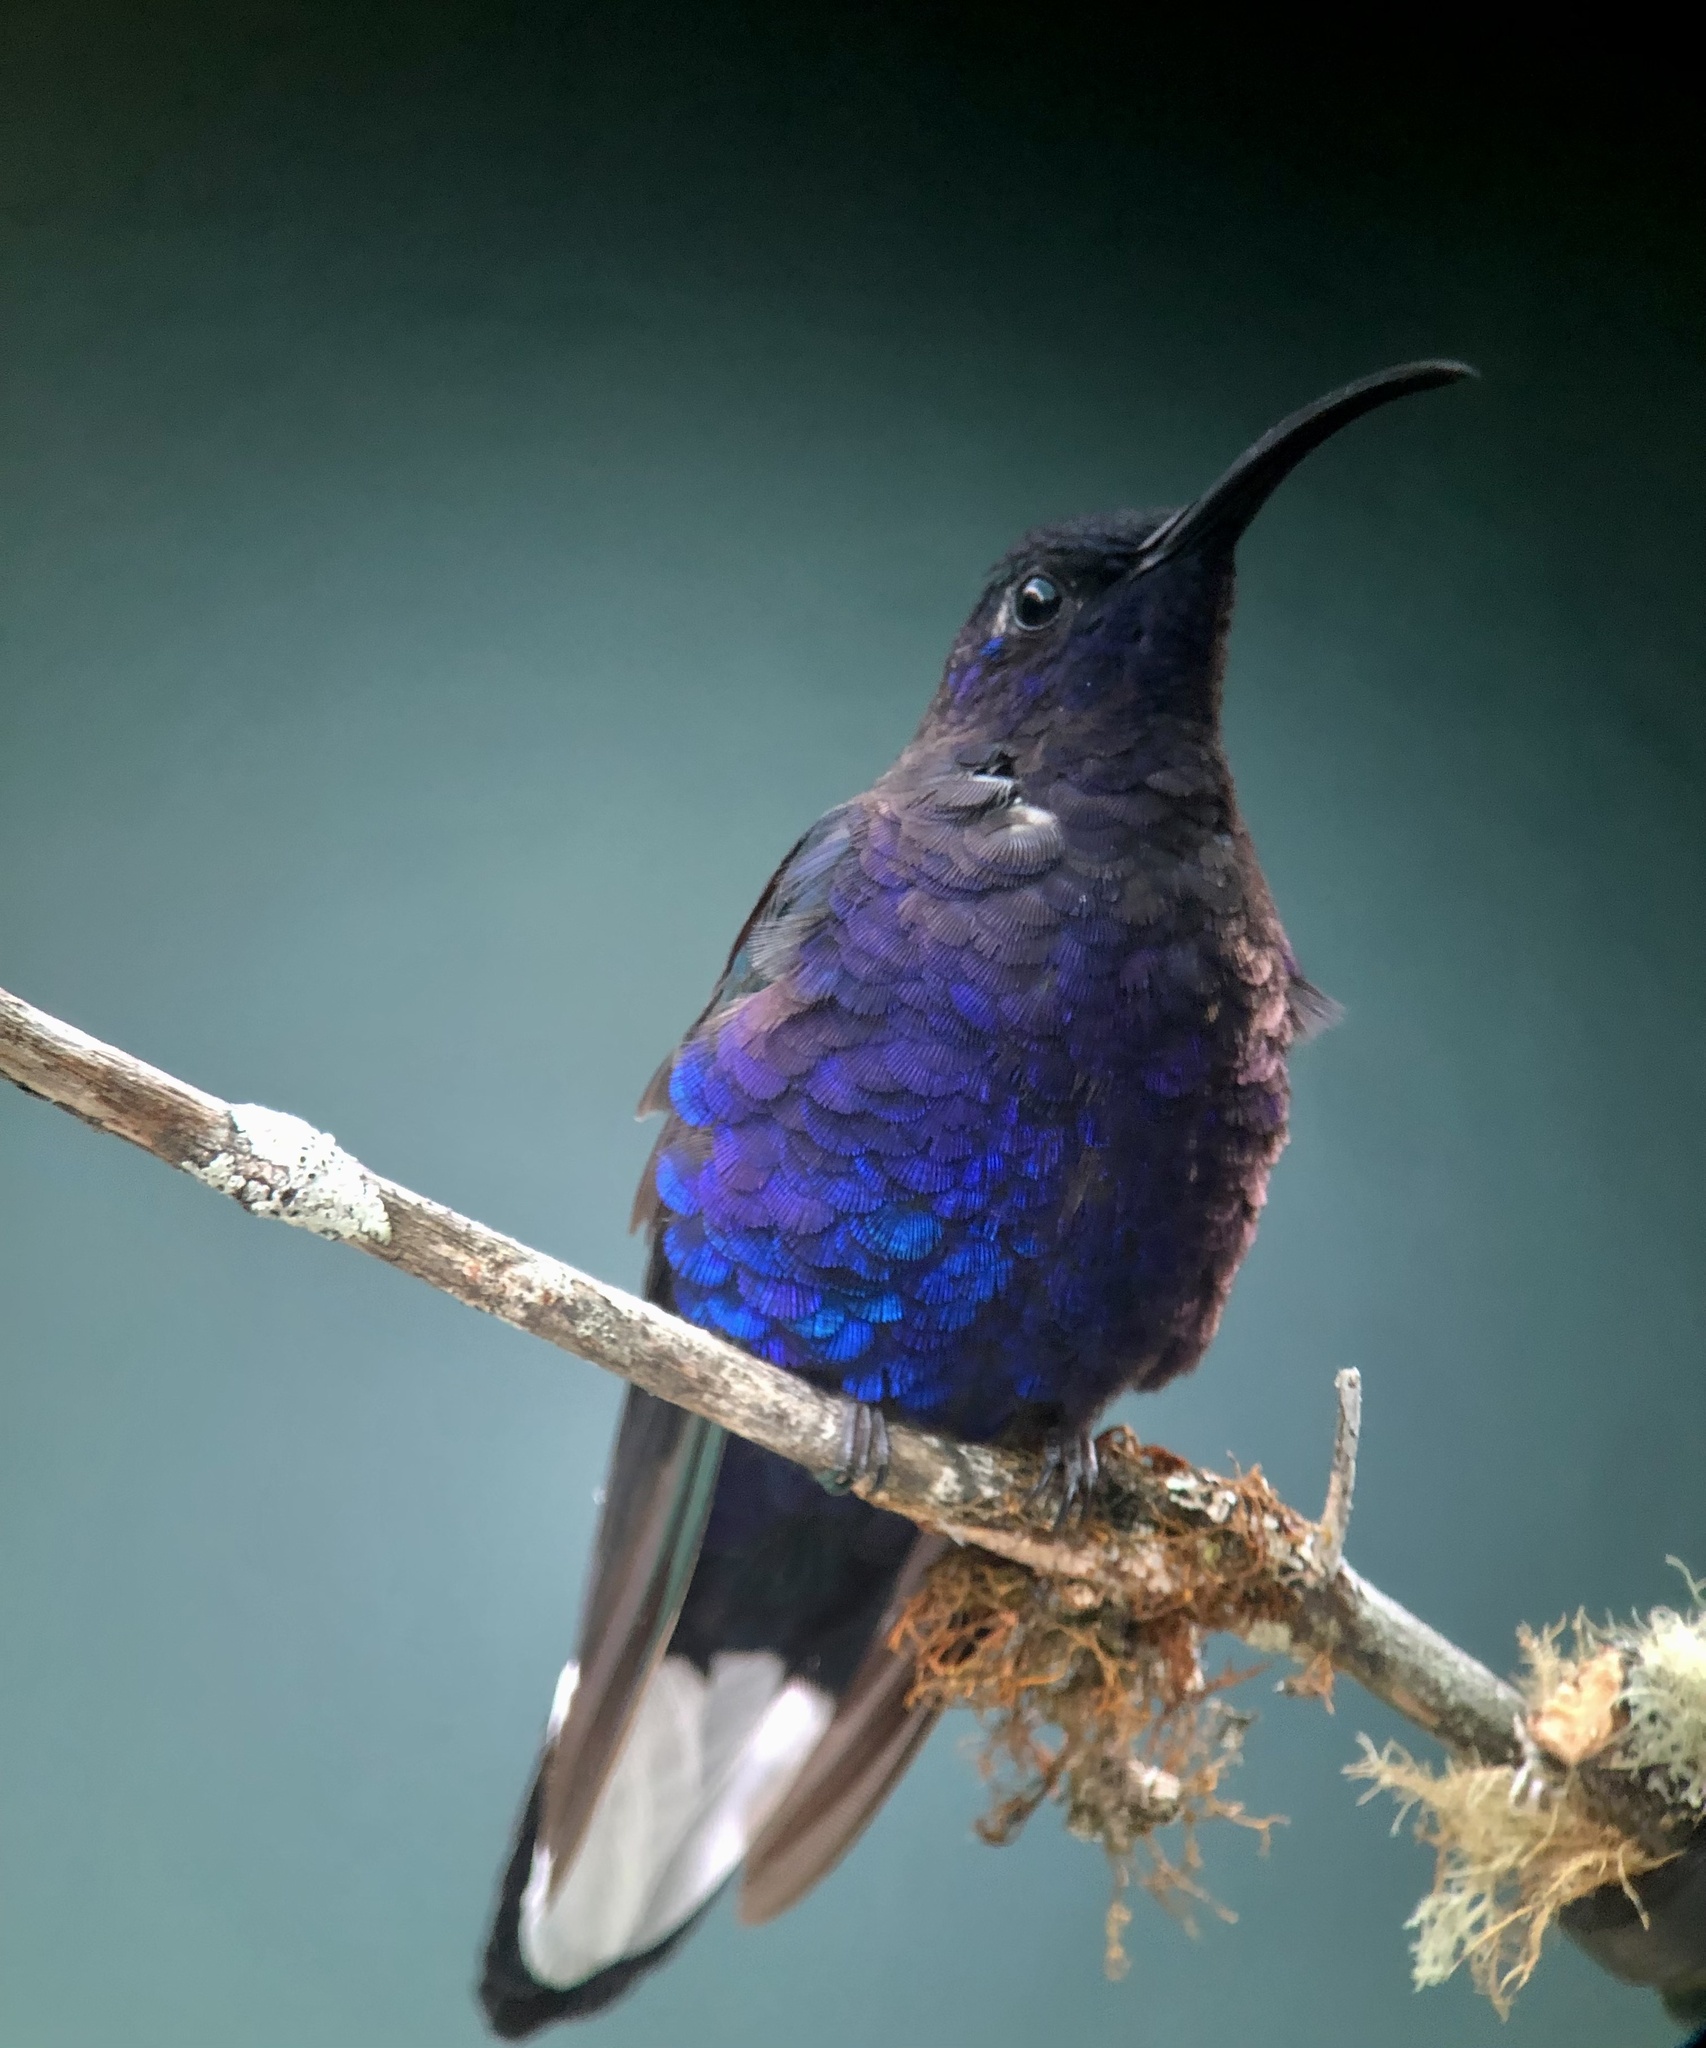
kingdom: Animalia
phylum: Chordata
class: Aves
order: Apodiformes
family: Trochilidae
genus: Campylopterus
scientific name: Campylopterus hemileucurus
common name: Violet sabrewing
